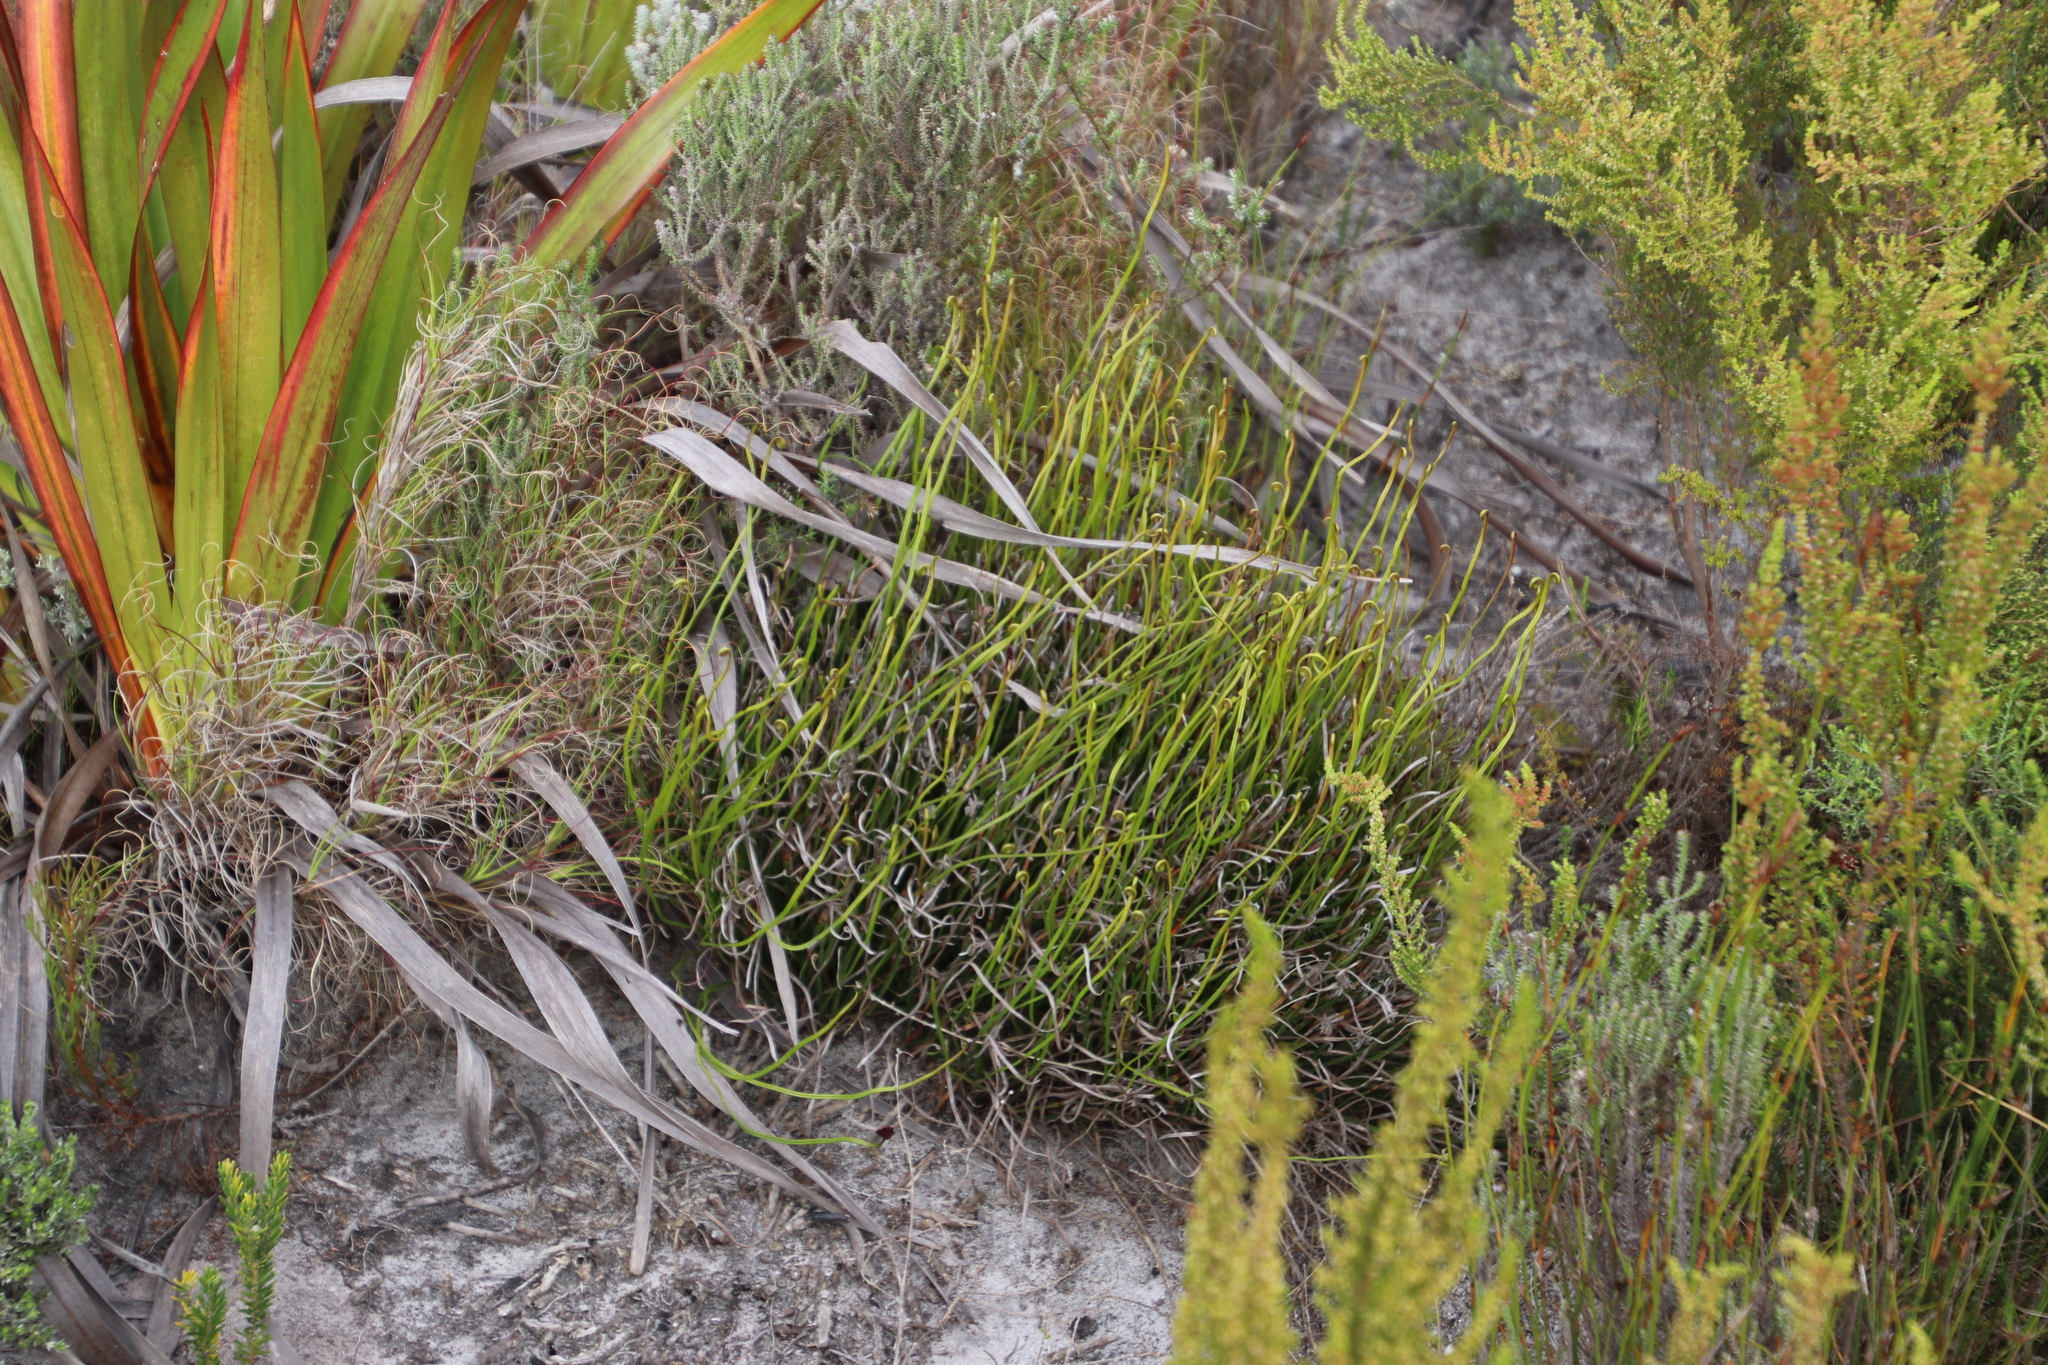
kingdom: Plantae
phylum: Tracheophyta
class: Polypodiopsida
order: Schizaeales
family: Schizaeaceae
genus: Schizaea
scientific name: Schizaea pectinata
